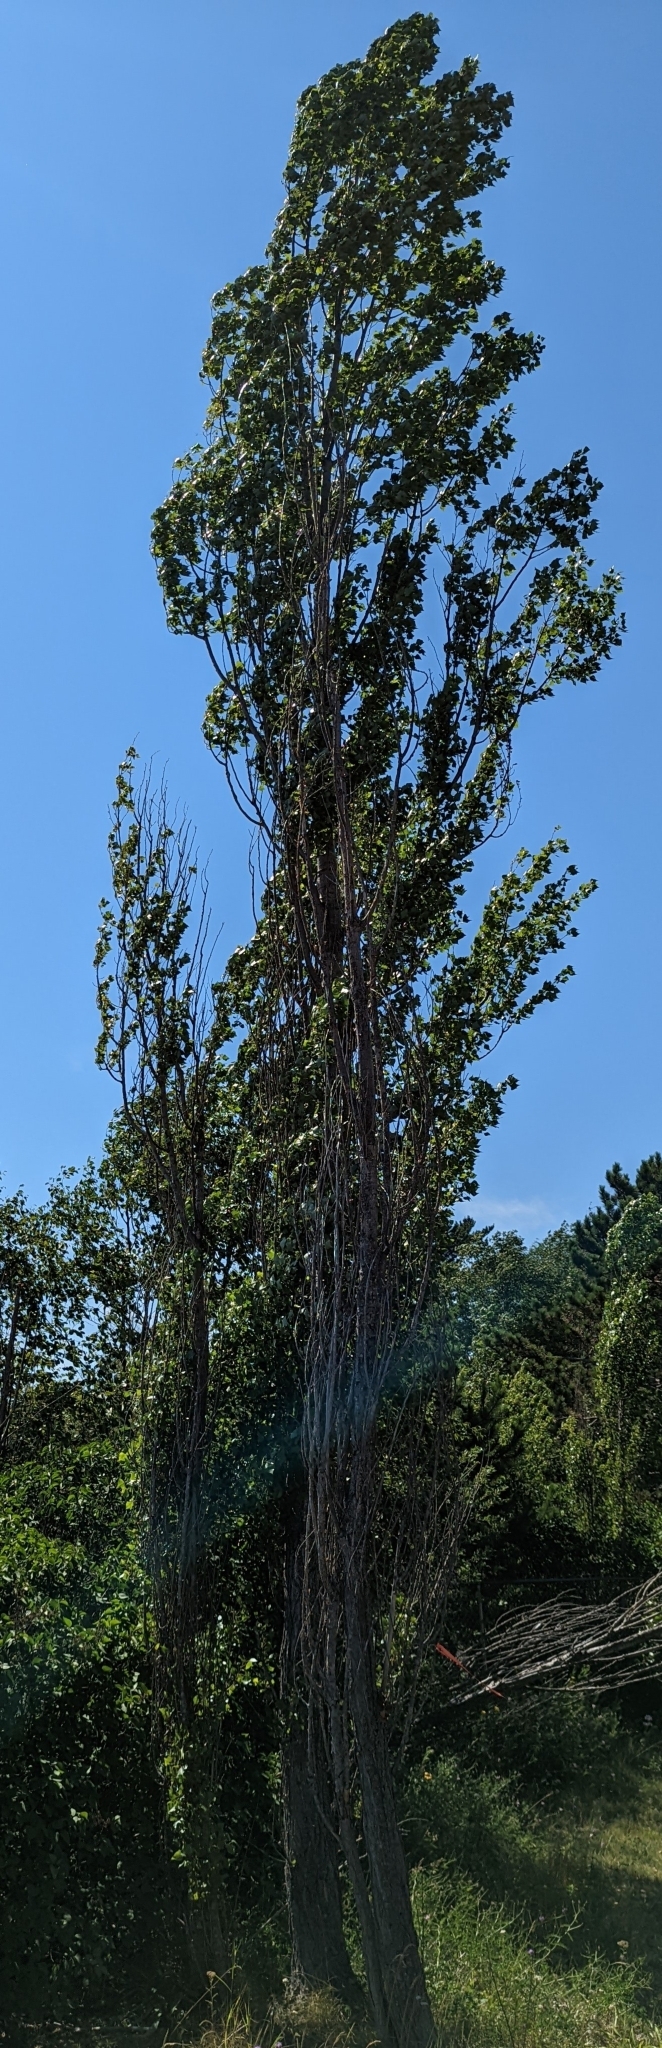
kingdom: Plantae
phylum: Tracheophyta
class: Magnoliopsida
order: Malpighiales
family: Salicaceae
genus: Populus
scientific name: Populus nigra
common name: Black poplar
